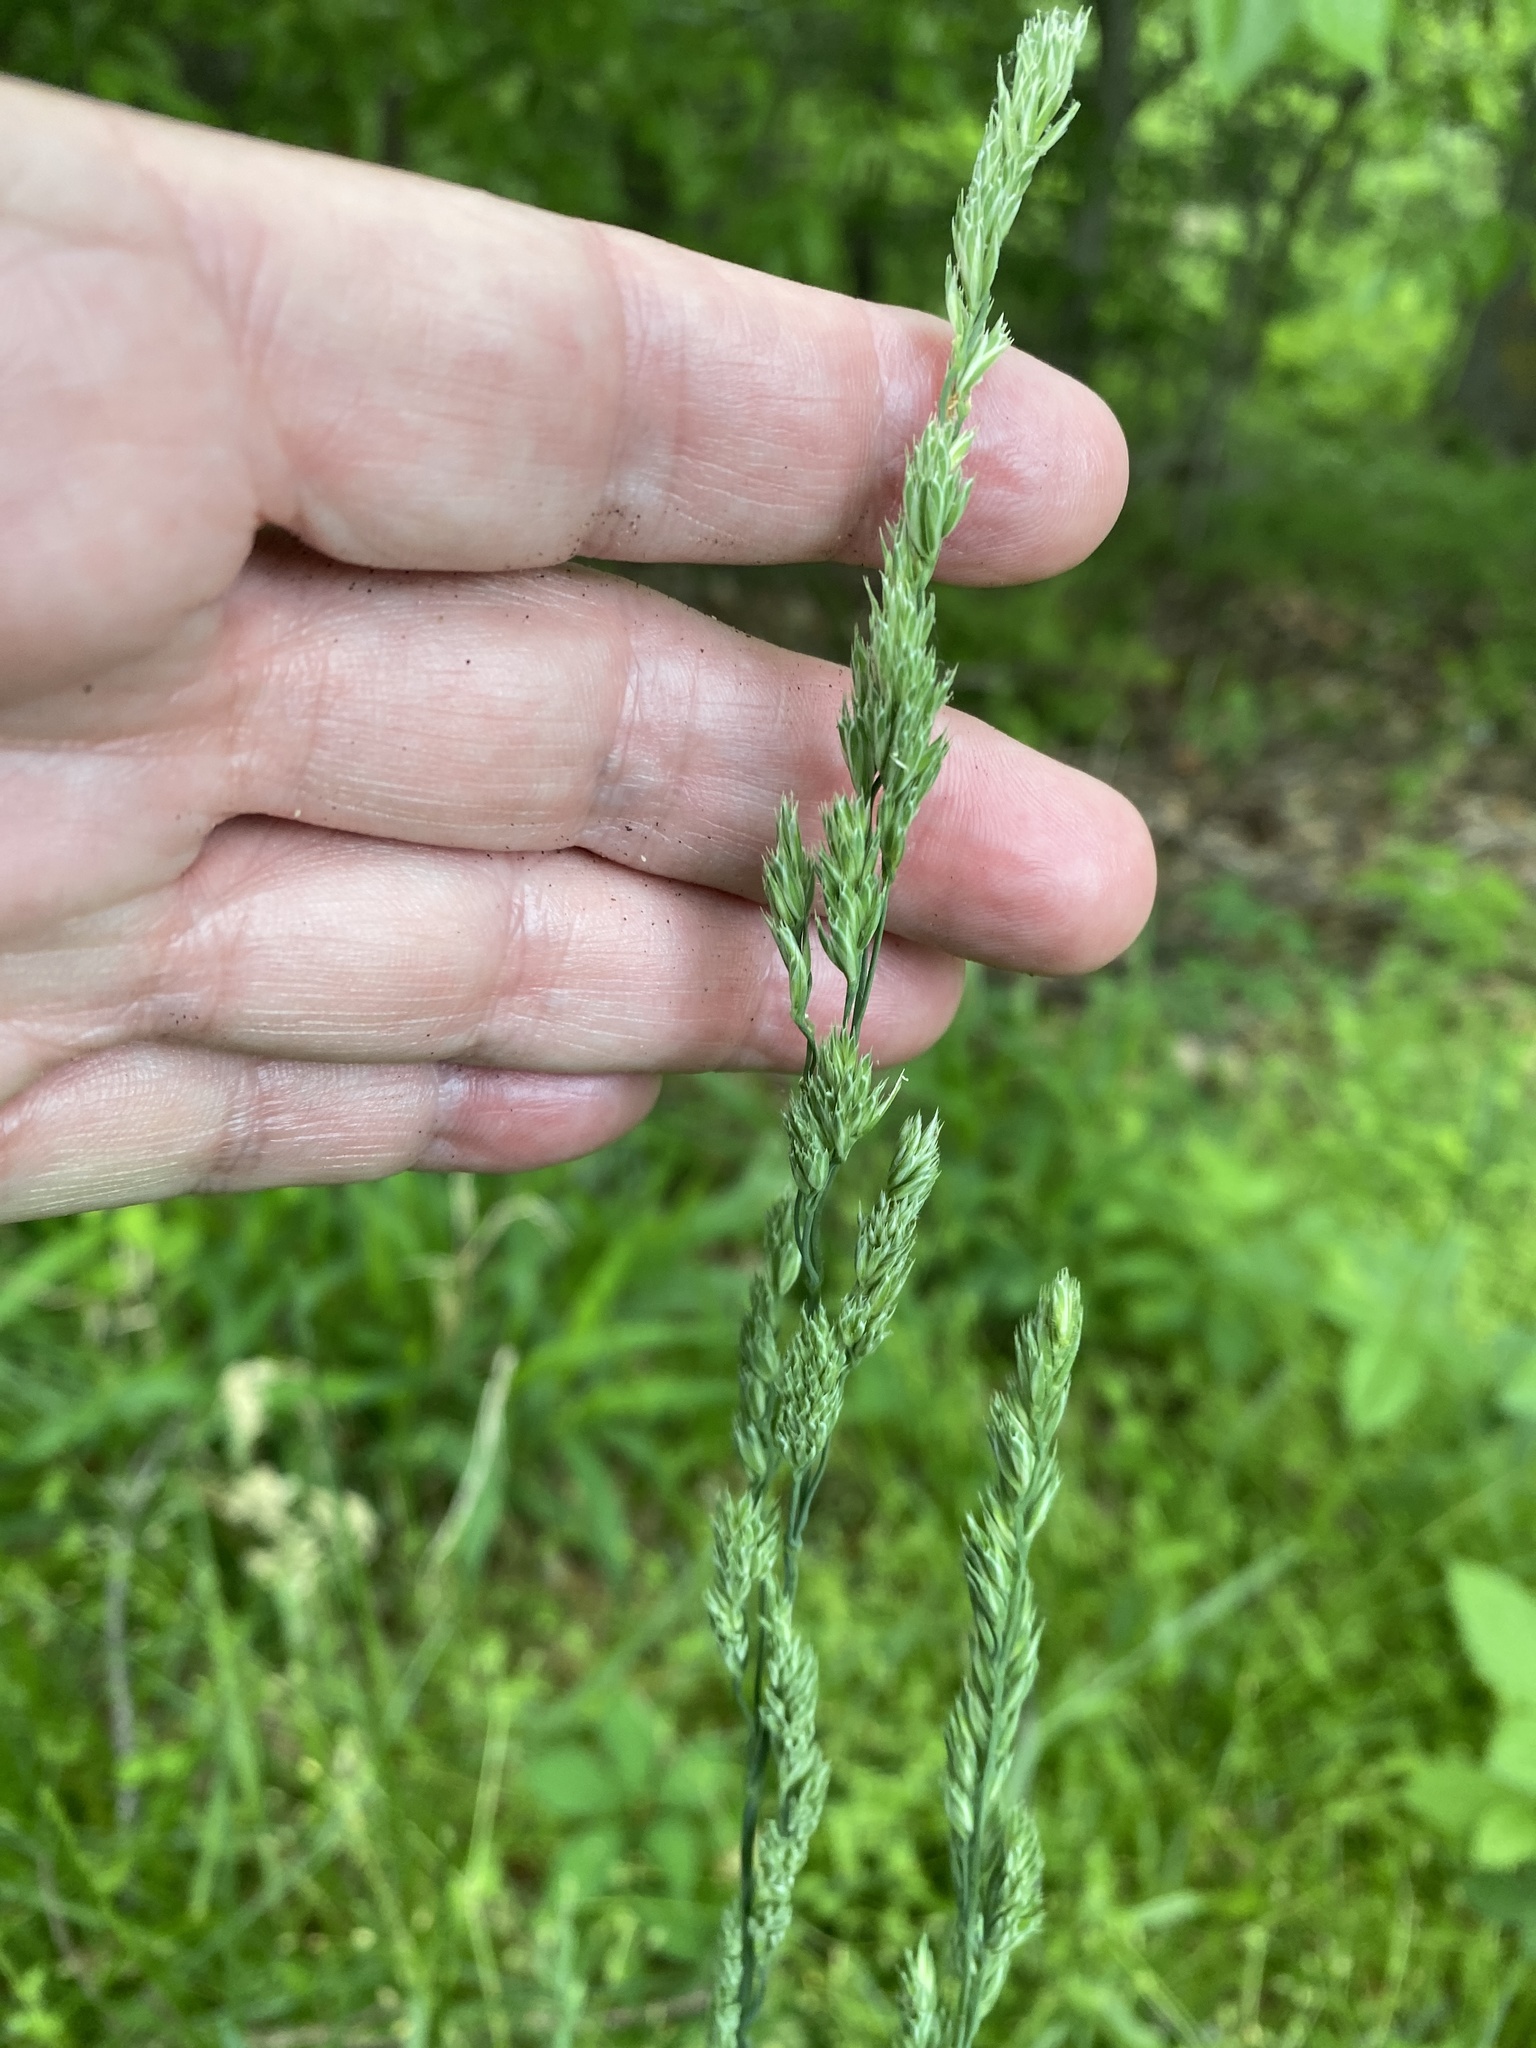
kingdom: Plantae
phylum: Tracheophyta
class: Liliopsida
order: Poales
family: Poaceae
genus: Dactylis
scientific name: Dactylis glomerata
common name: Orchardgrass
